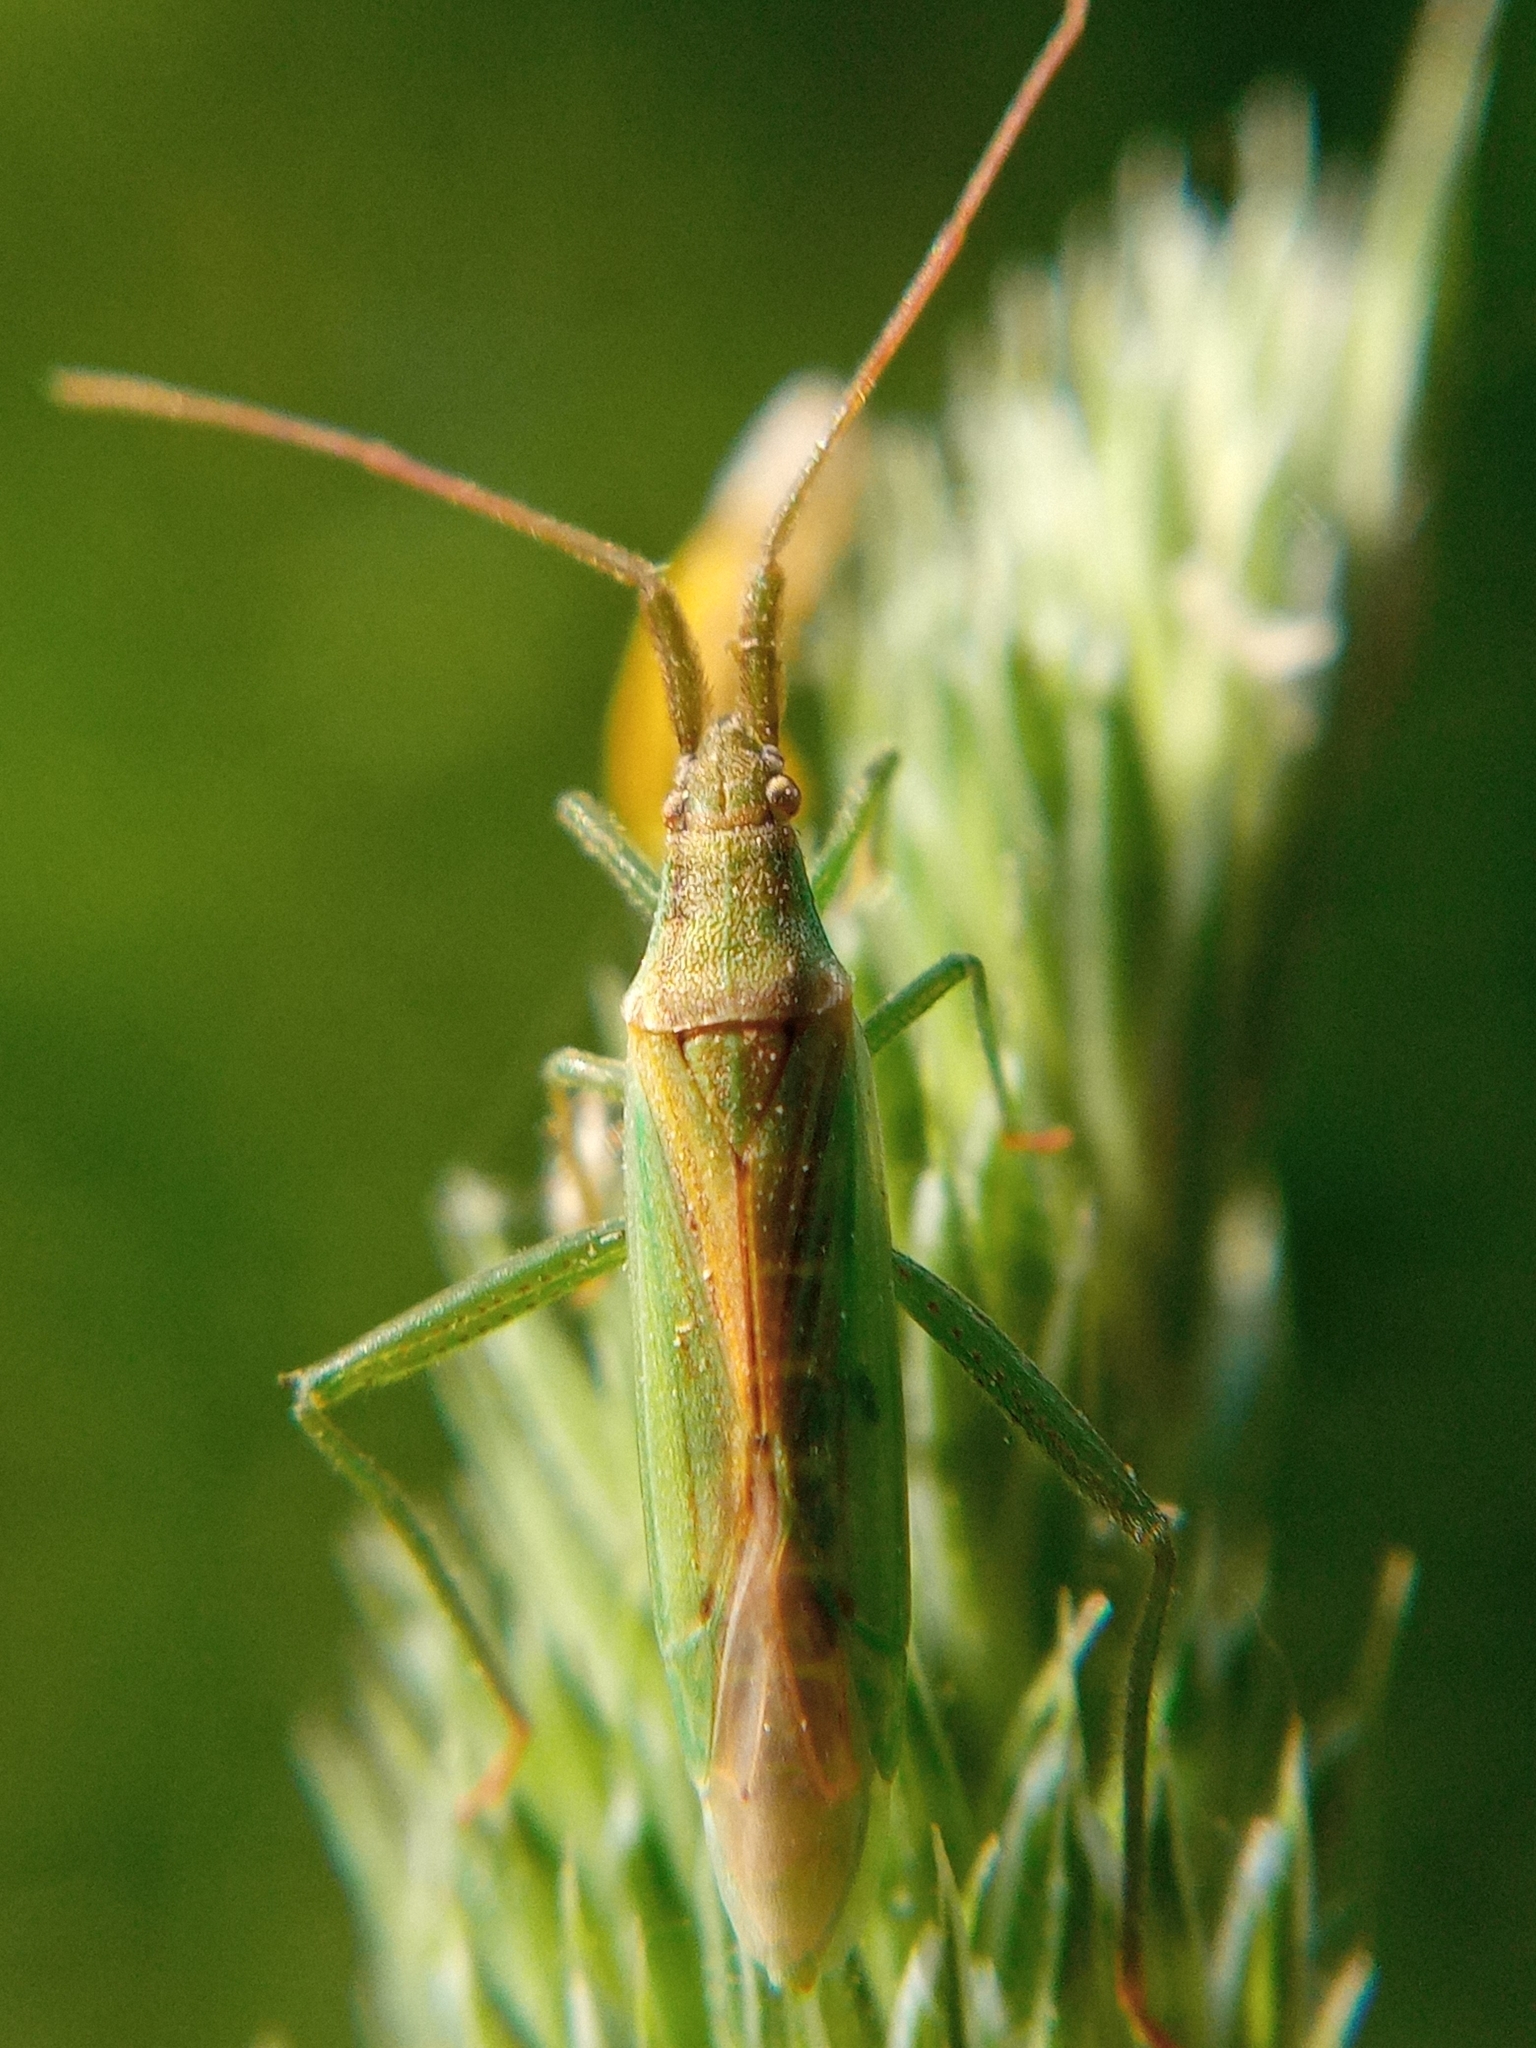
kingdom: Animalia
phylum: Arthropoda
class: Insecta
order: Hemiptera
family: Miridae
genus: Stenodema
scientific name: Stenodema laevigata
